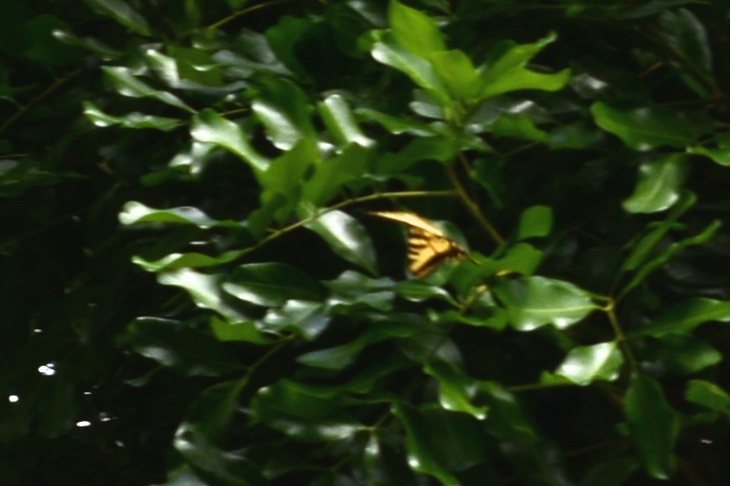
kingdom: Animalia
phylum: Arthropoda
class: Insecta
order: Lepidoptera
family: Papilionidae
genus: Papilio
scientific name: Papilio rutulus
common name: Western tiger swallowtail
